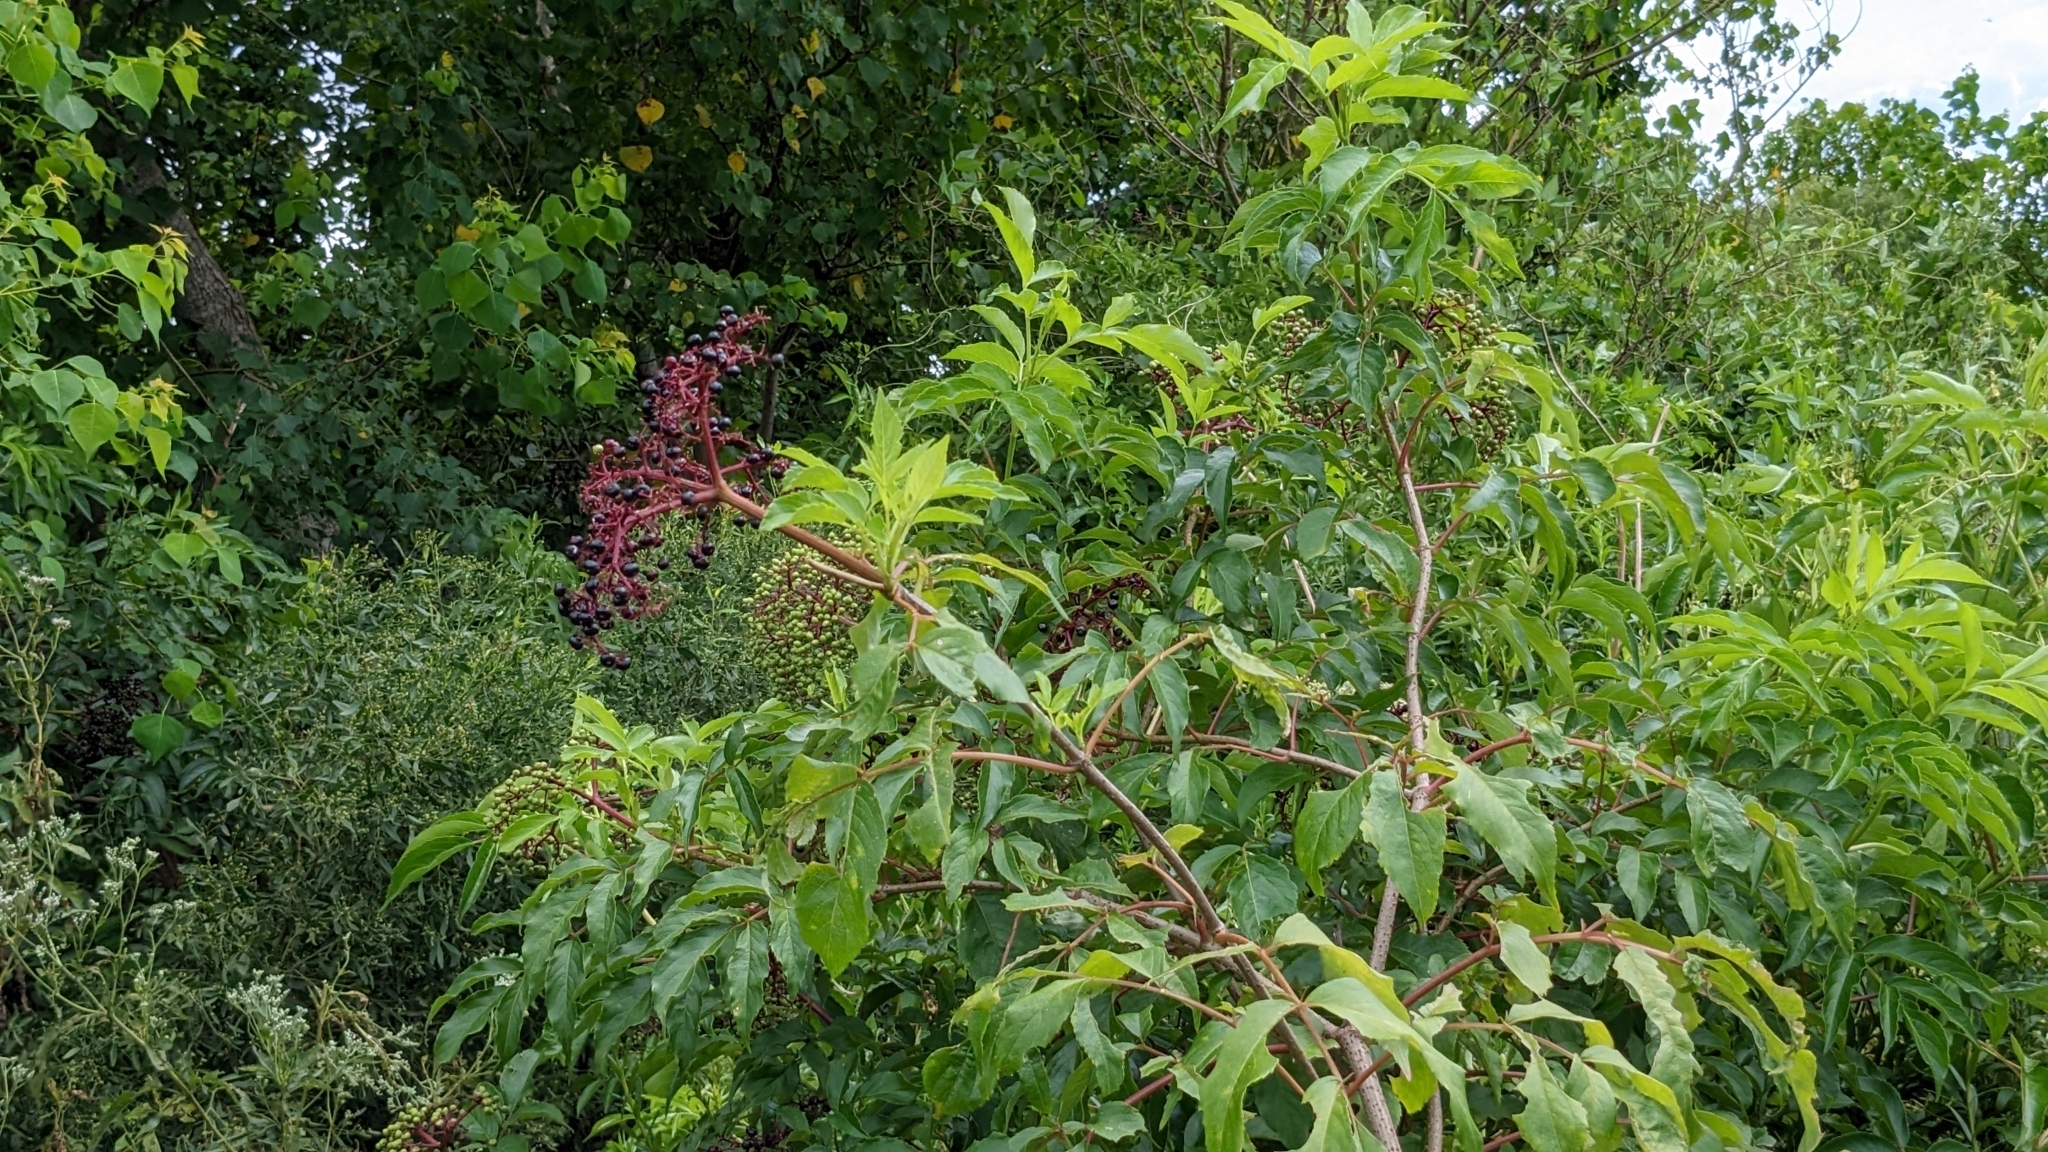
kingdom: Plantae
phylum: Tracheophyta
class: Magnoliopsida
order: Dipsacales
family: Viburnaceae
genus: Sambucus
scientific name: Sambucus canadensis
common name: American elder
